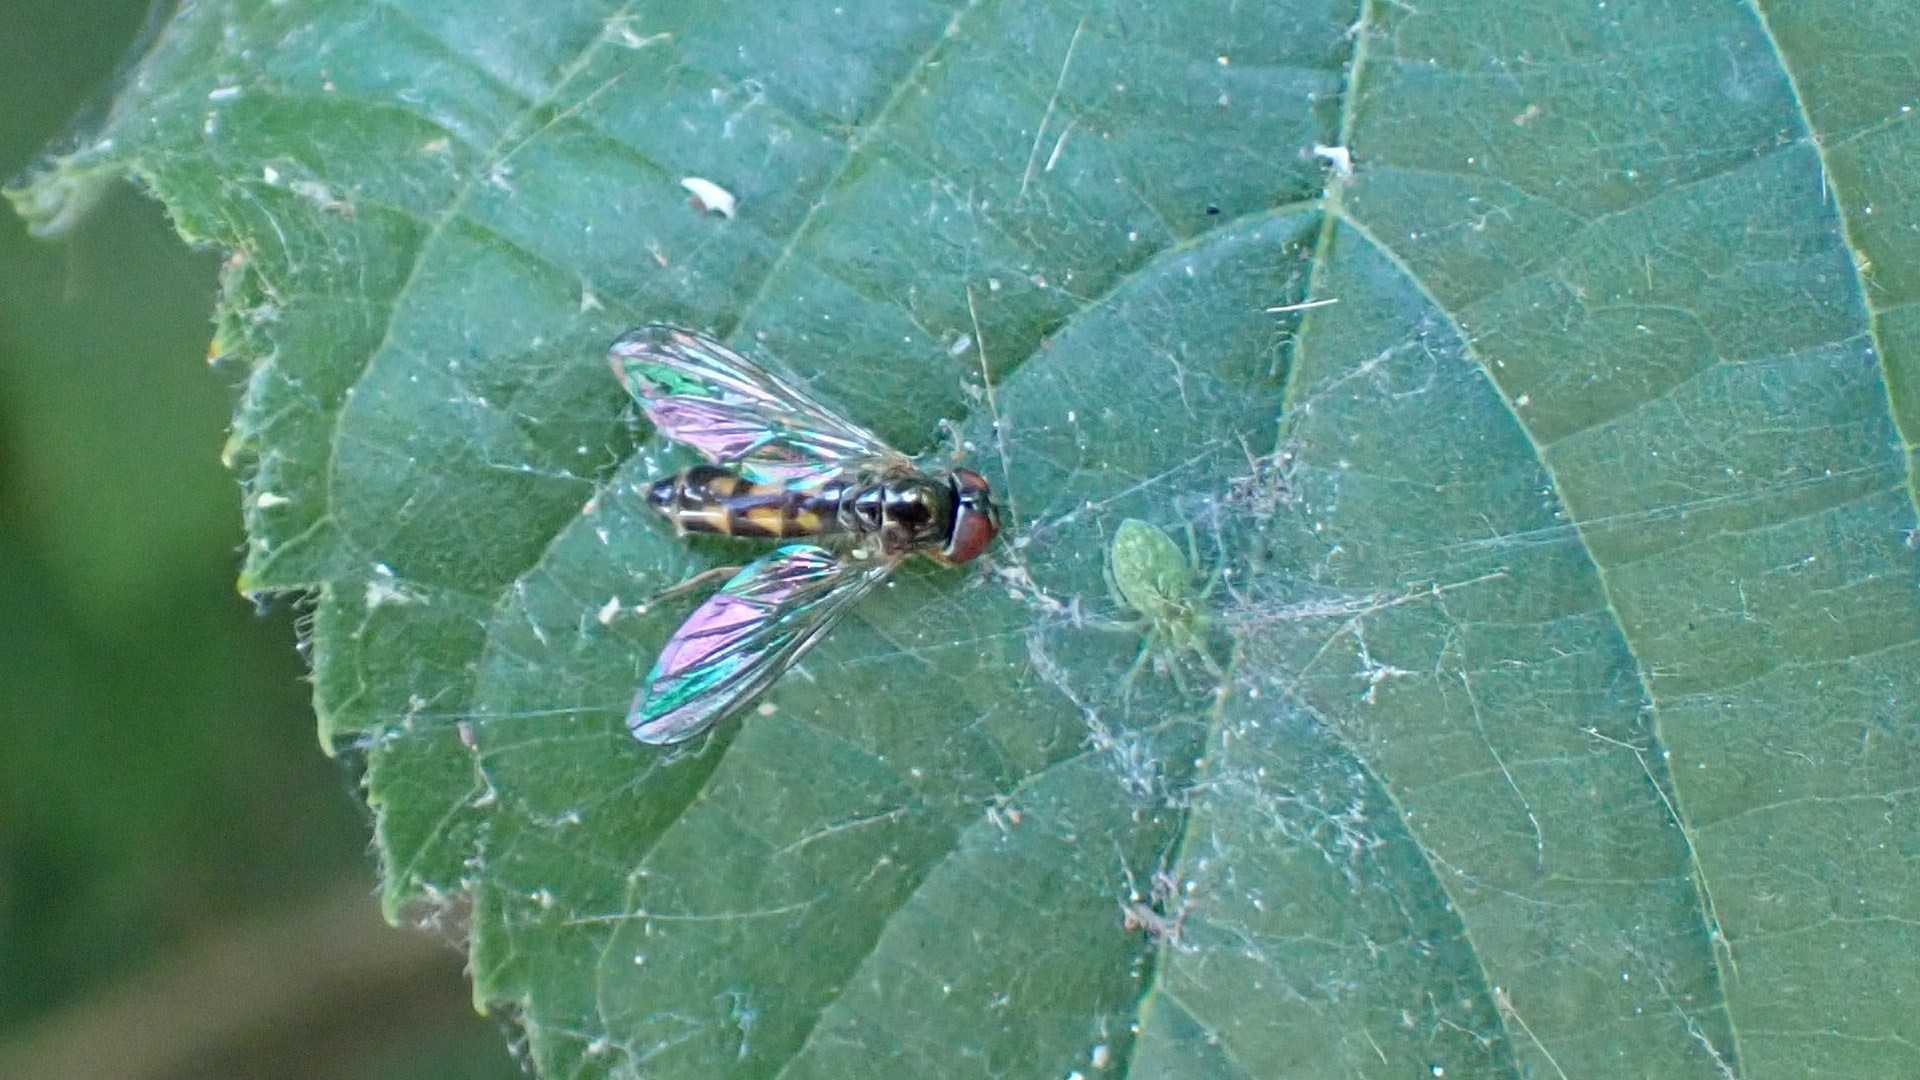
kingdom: Animalia
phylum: Arthropoda
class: Arachnida
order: Araneae
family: Dictynidae
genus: Nigma
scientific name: Nigma walckenaeri
